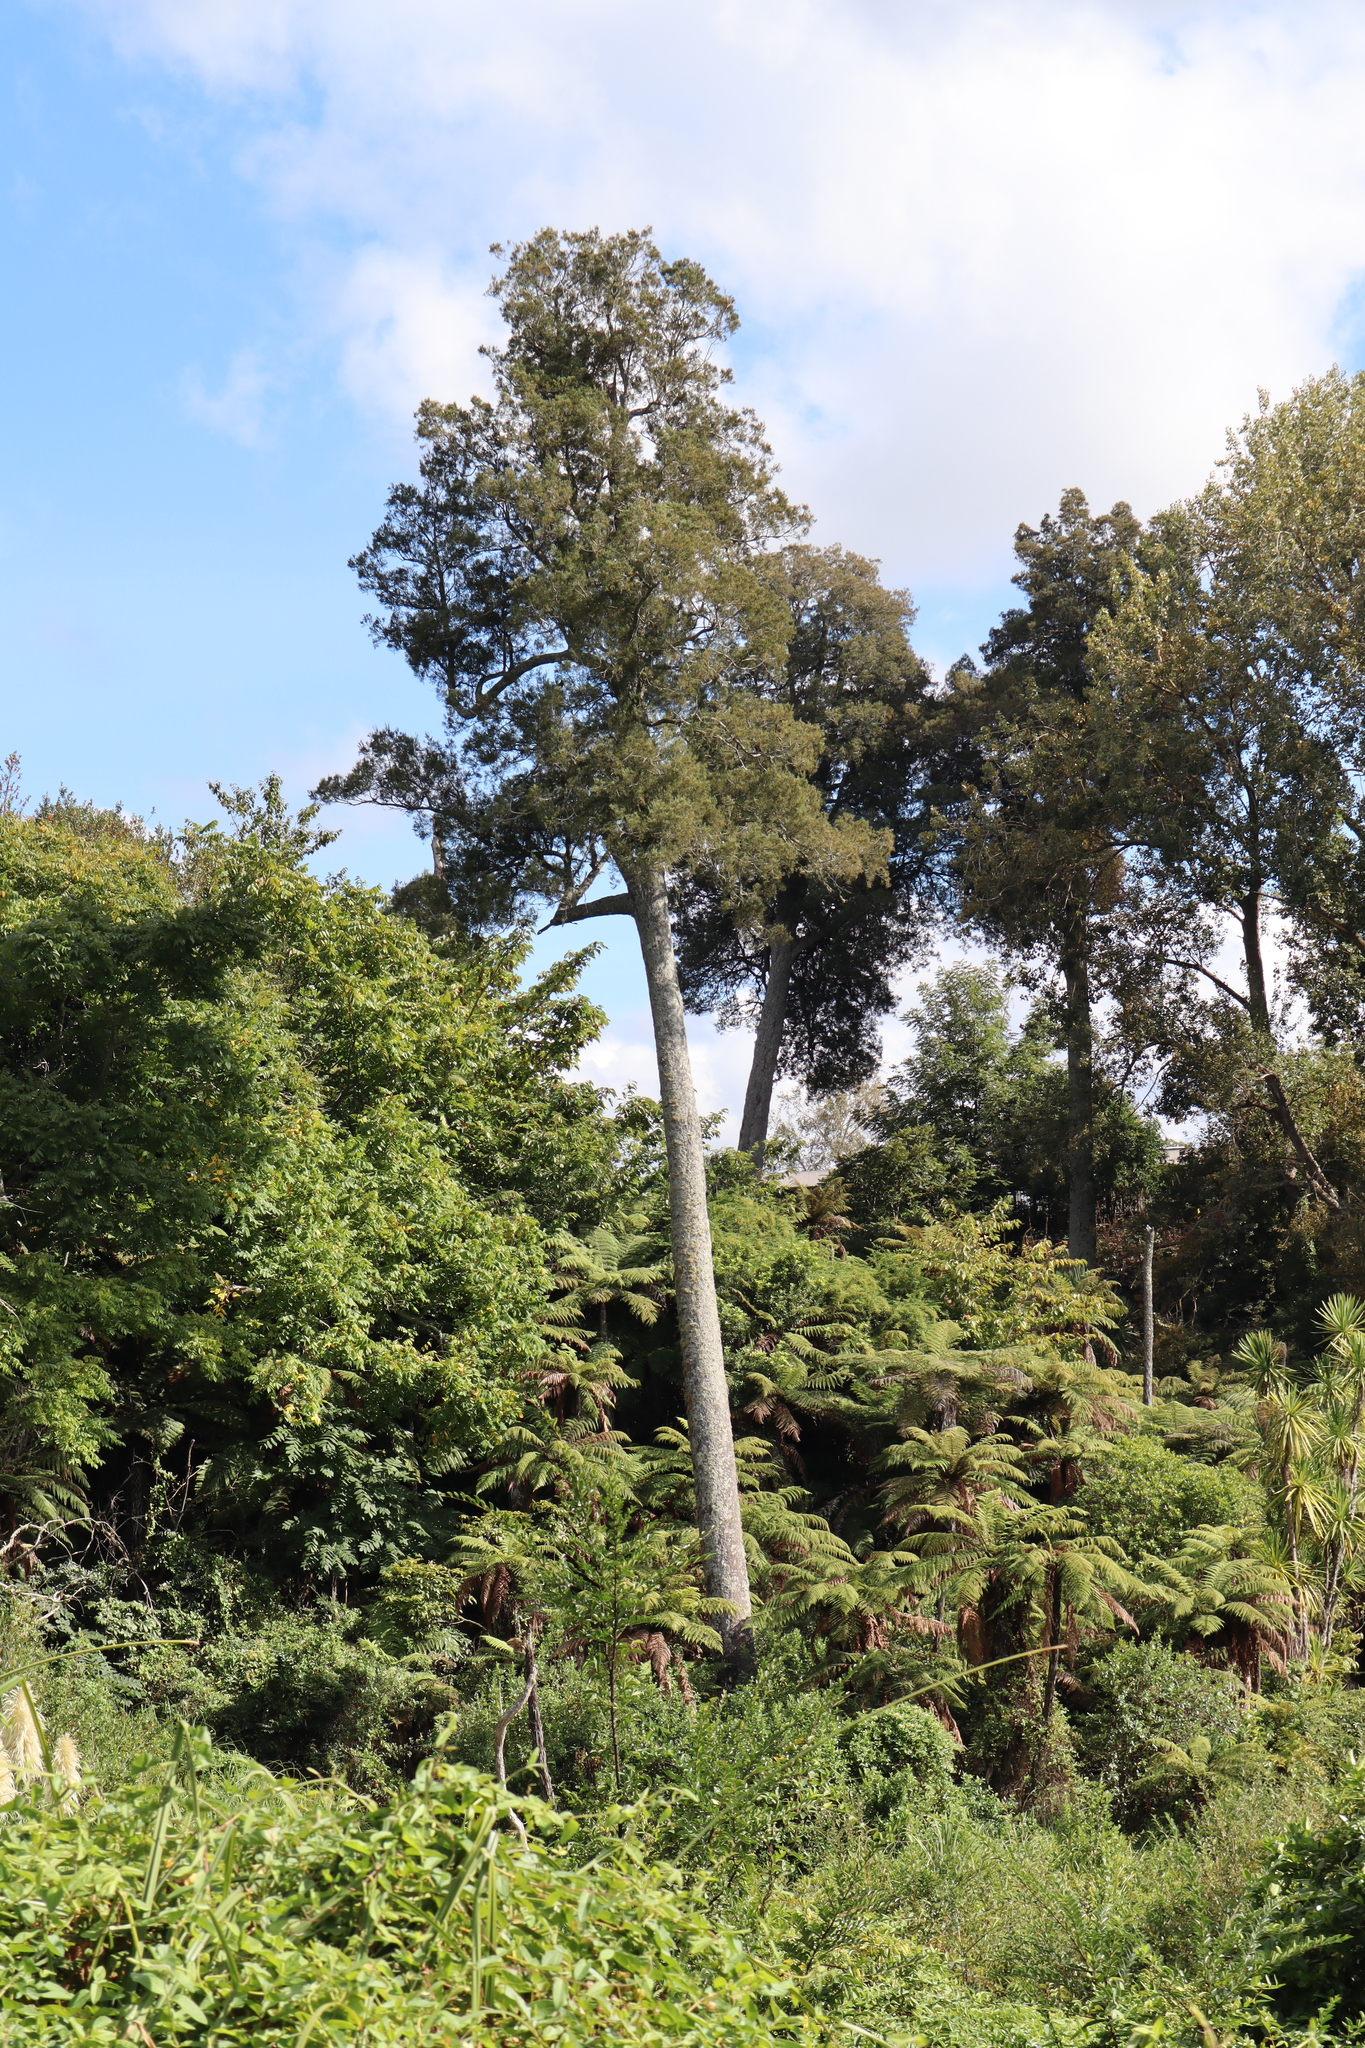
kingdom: Plantae
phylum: Tracheophyta
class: Pinopsida
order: Pinales
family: Podocarpaceae
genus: Dacrycarpus
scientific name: Dacrycarpus dacrydioides
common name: White pine
